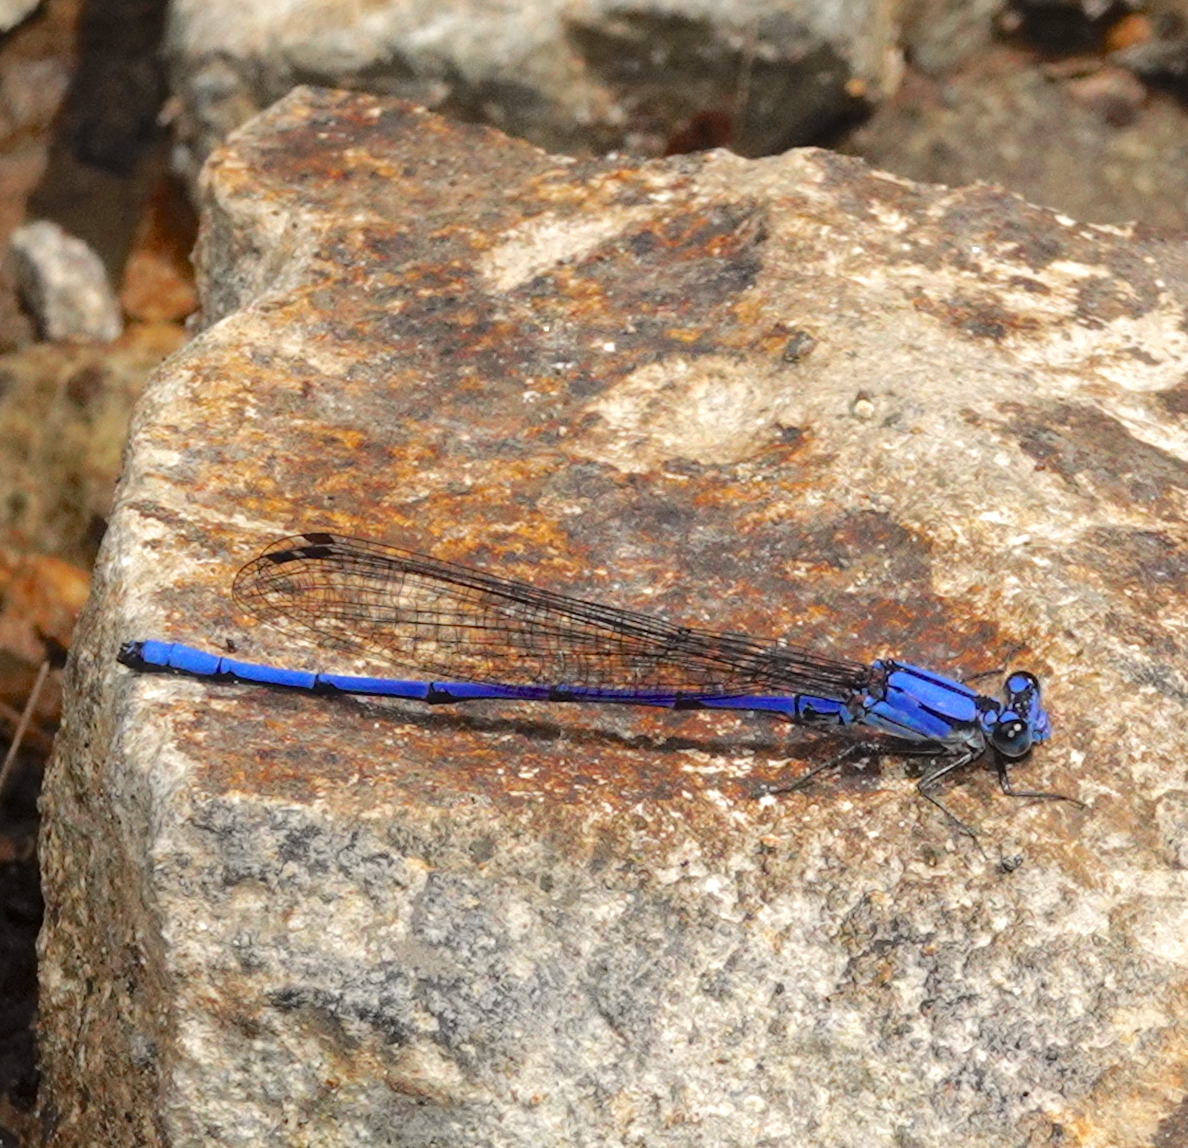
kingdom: Animalia
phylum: Arthropoda
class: Insecta
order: Odonata
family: Coenagrionidae
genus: Argia
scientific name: Argia medullaris
